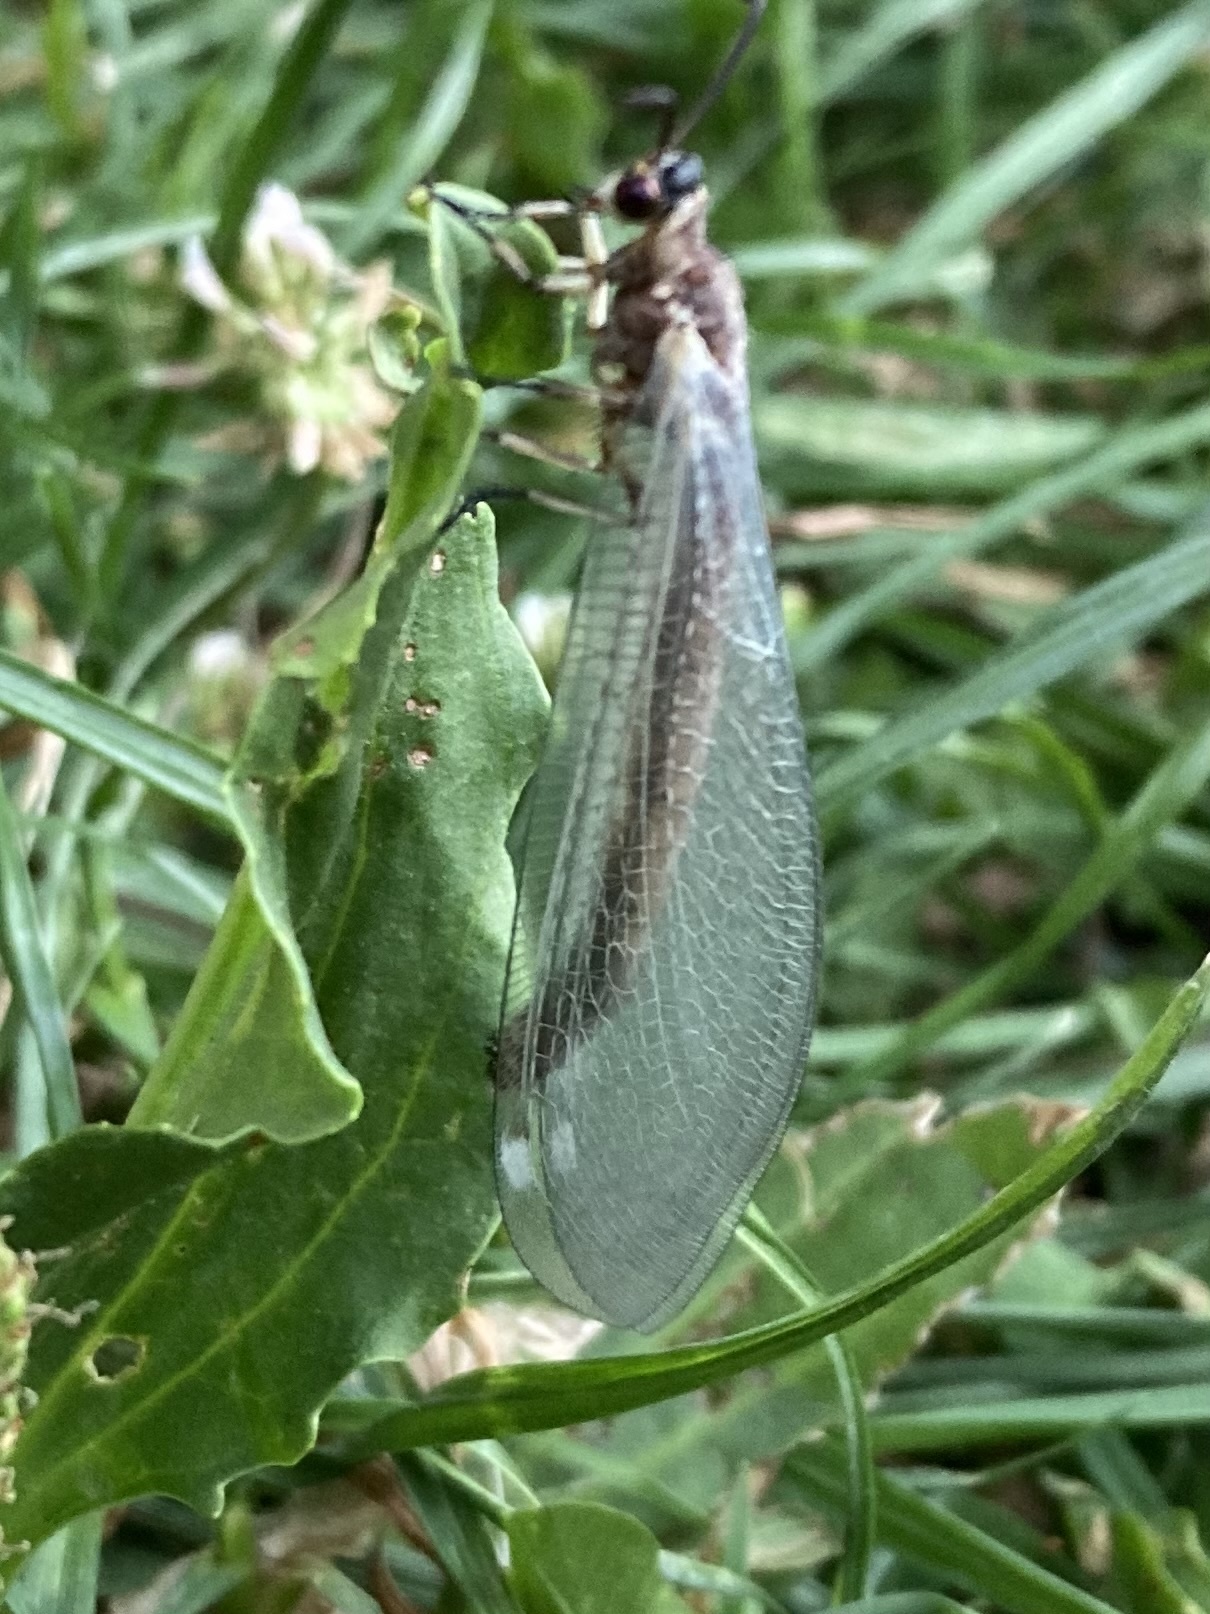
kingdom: Animalia
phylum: Arthropoda
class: Insecta
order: Neuroptera
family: Myrmeleontidae
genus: Myrmeleon
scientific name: Myrmeleon formicarius
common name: Ant-lion
